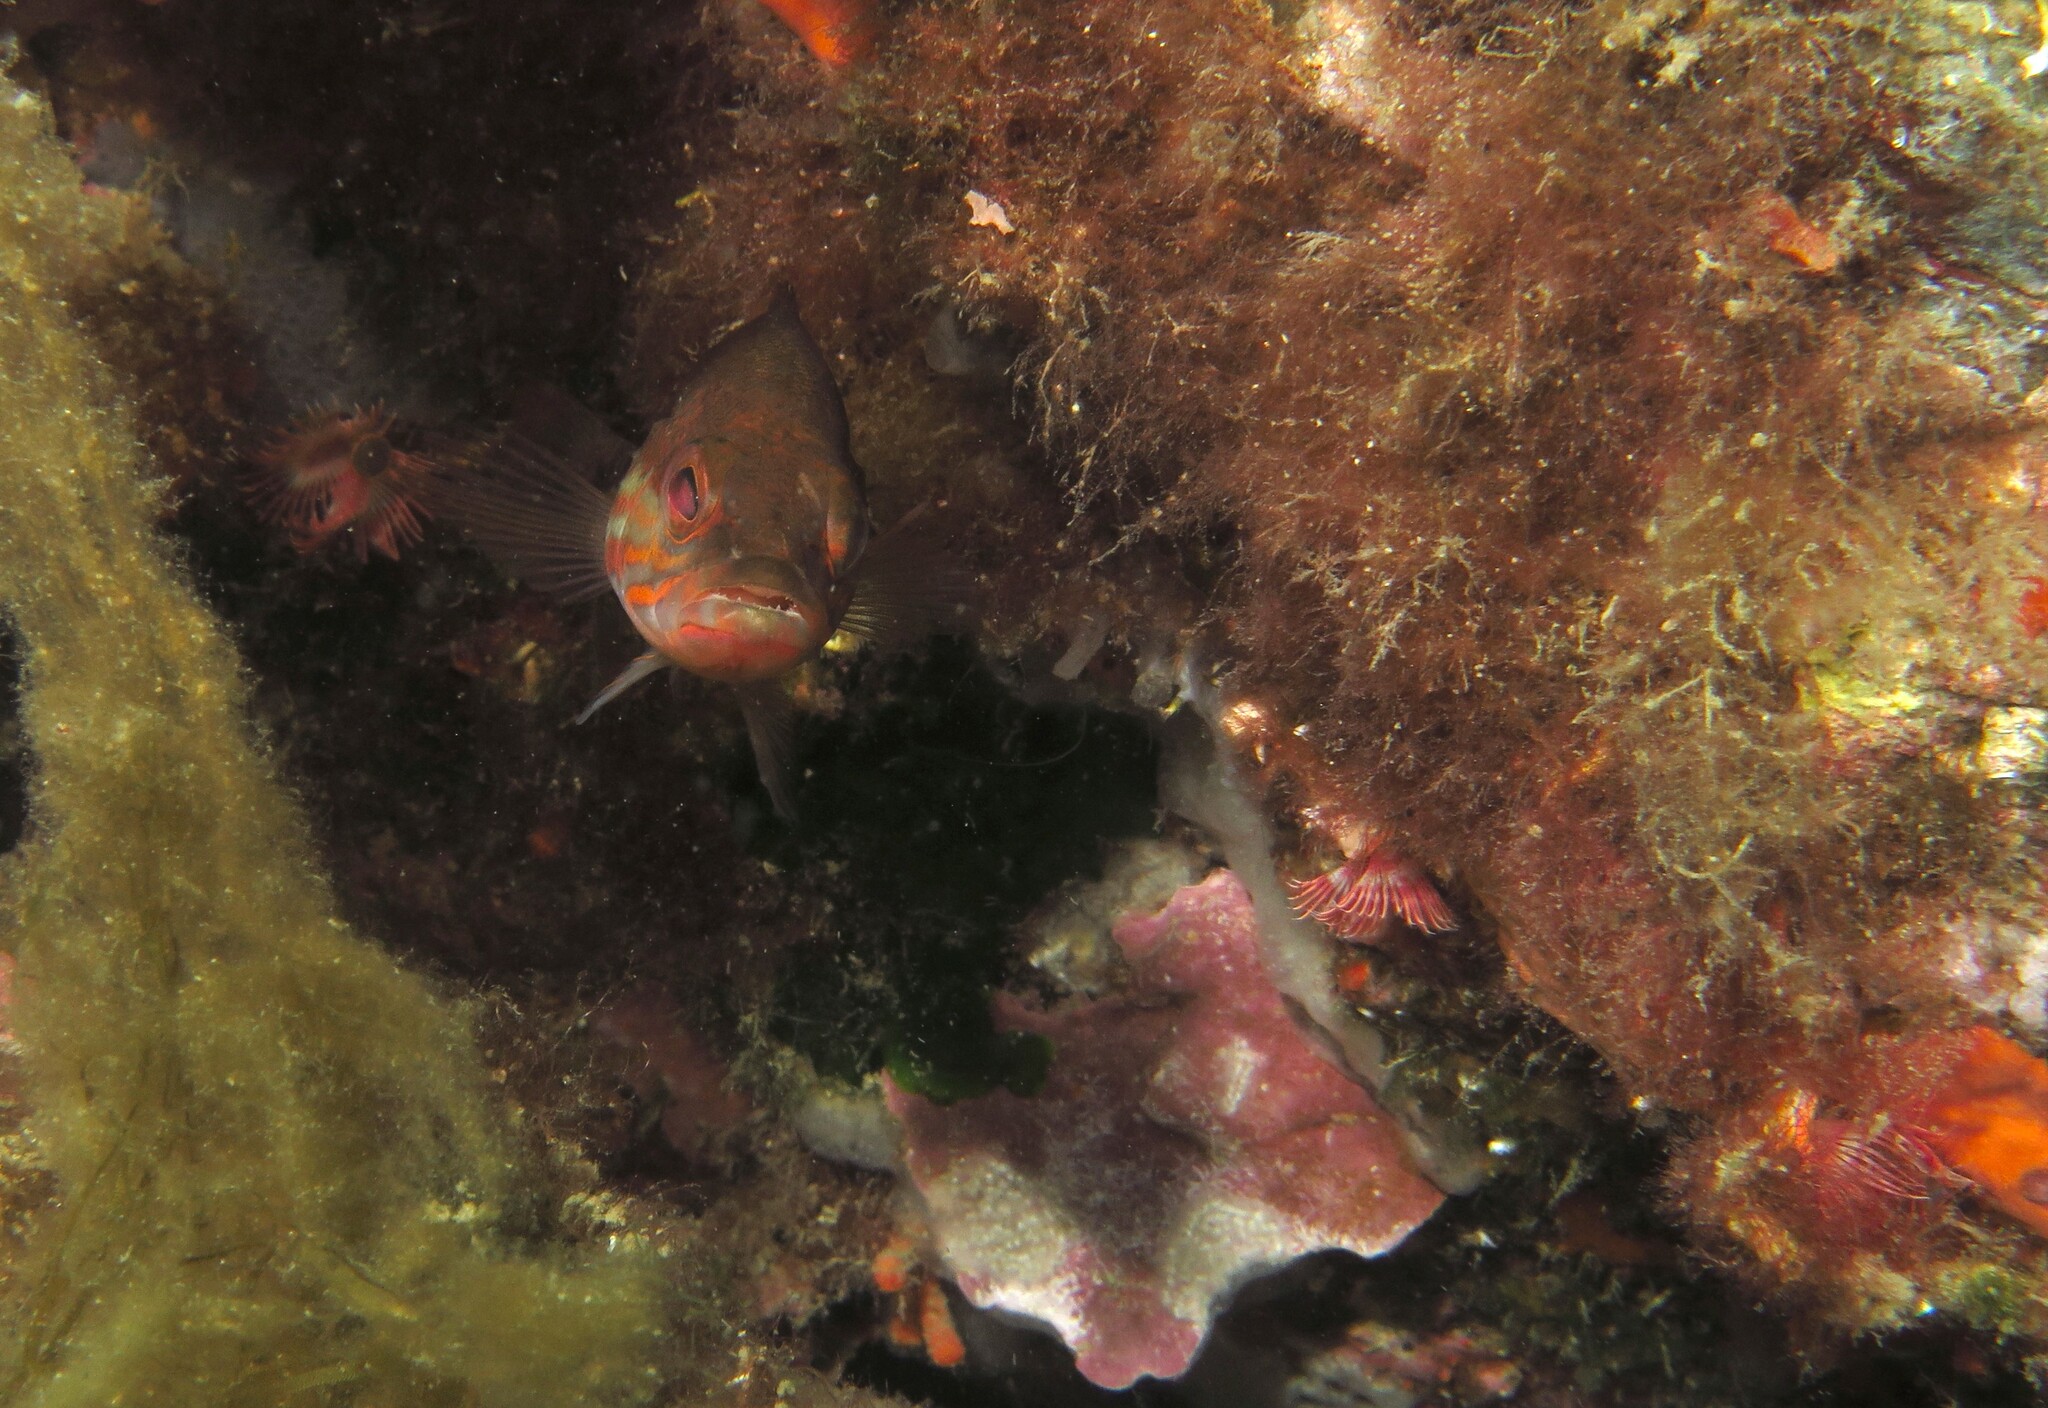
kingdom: Animalia
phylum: Chordata
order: Perciformes
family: Serranidae
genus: Serranus
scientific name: Serranus cabrilla
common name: Comber
